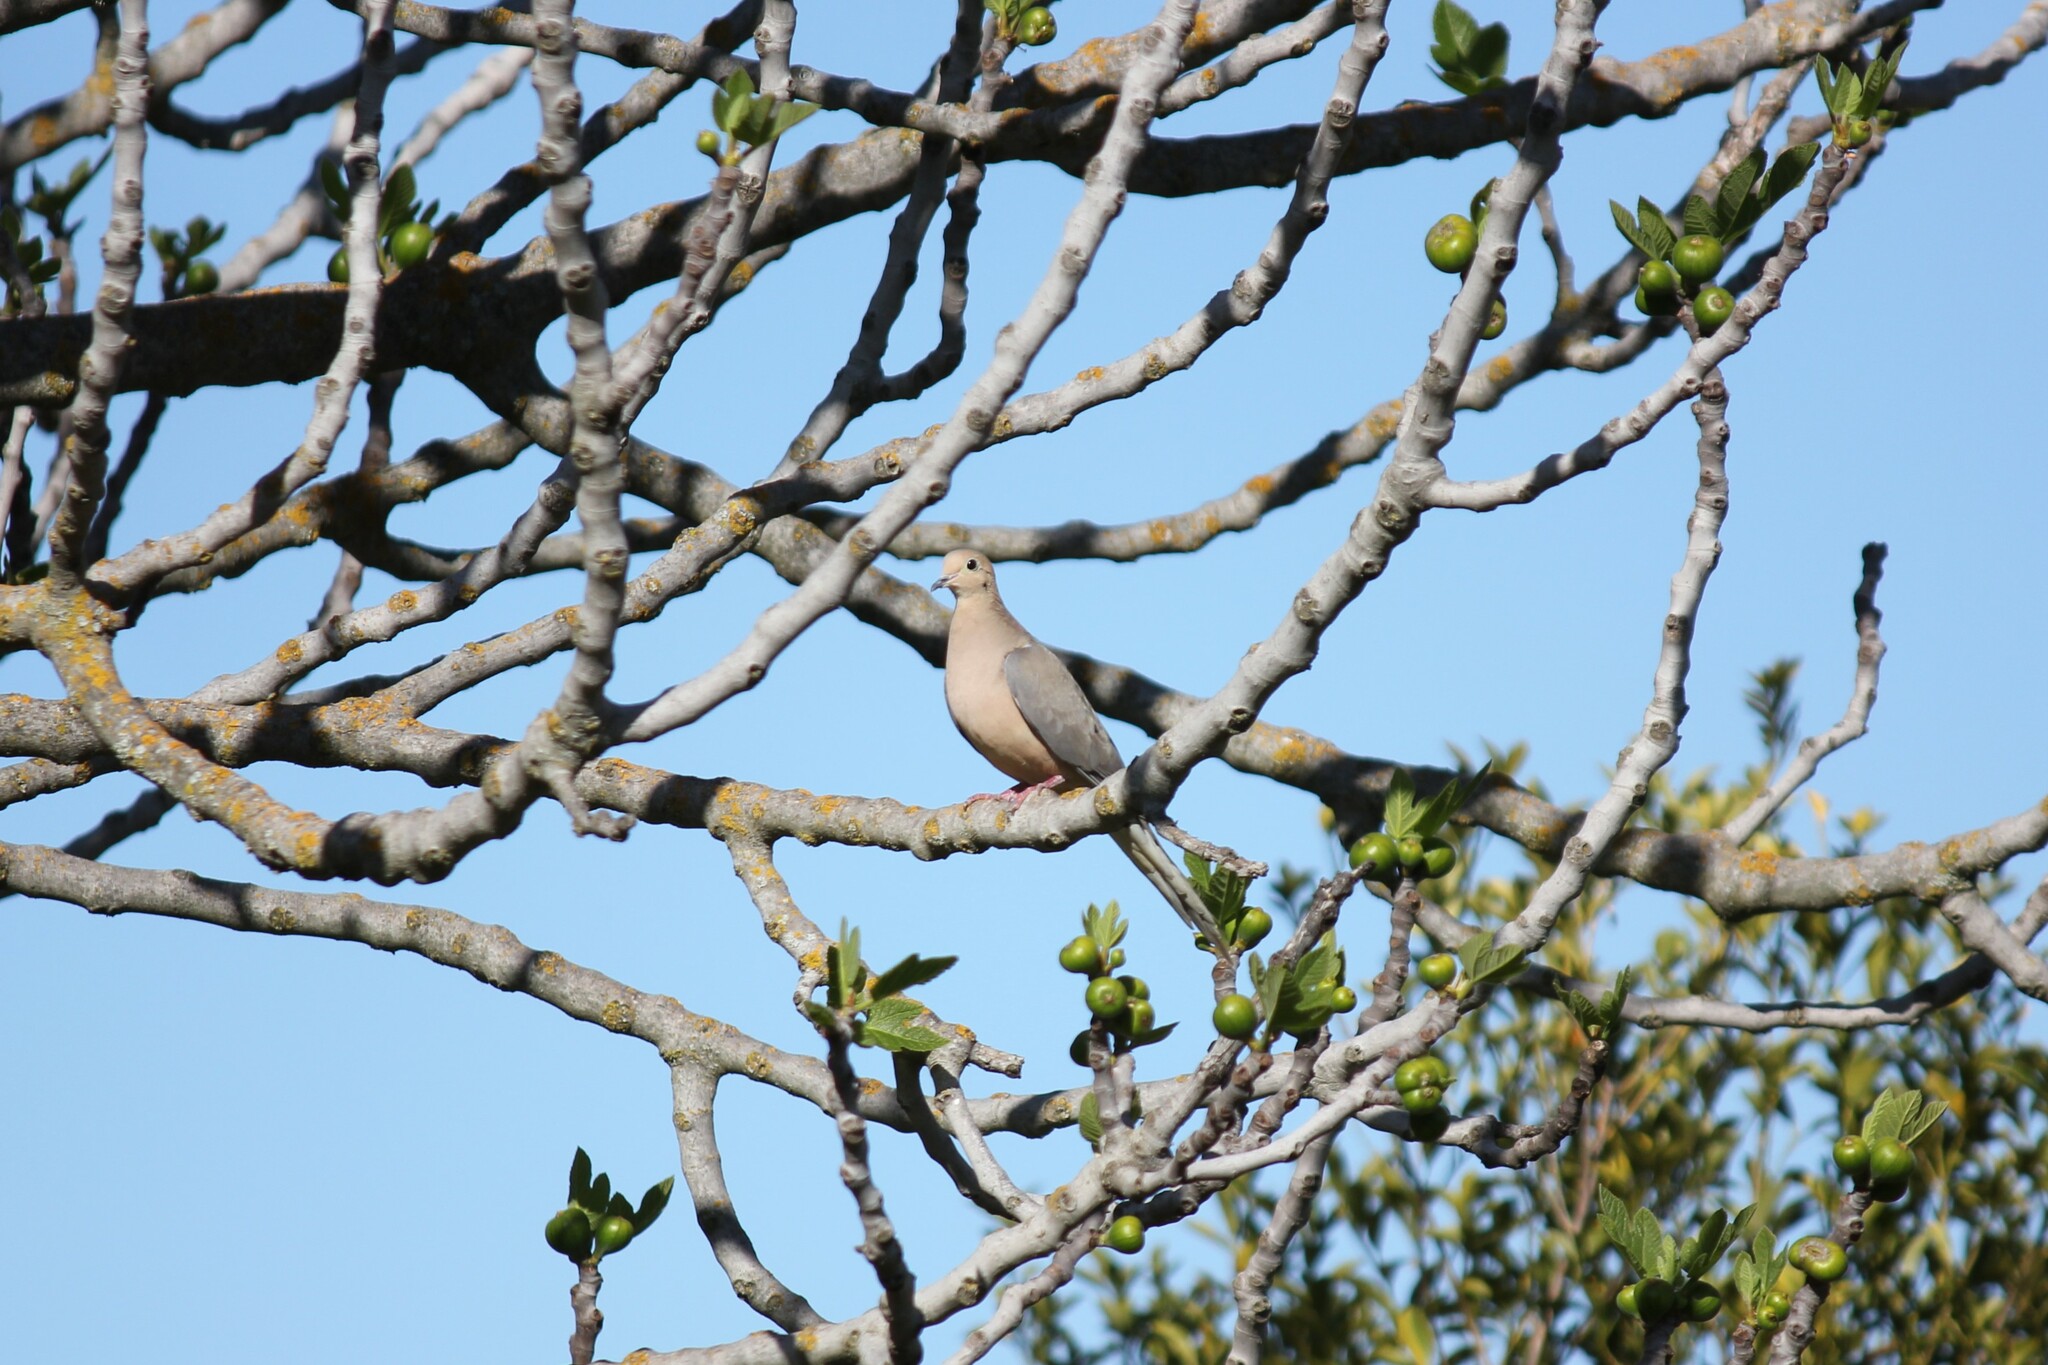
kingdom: Animalia
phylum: Chordata
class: Aves
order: Columbiformes
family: Columbidae
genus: Zenaida
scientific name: Zenaida macroura
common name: Mourning dove
